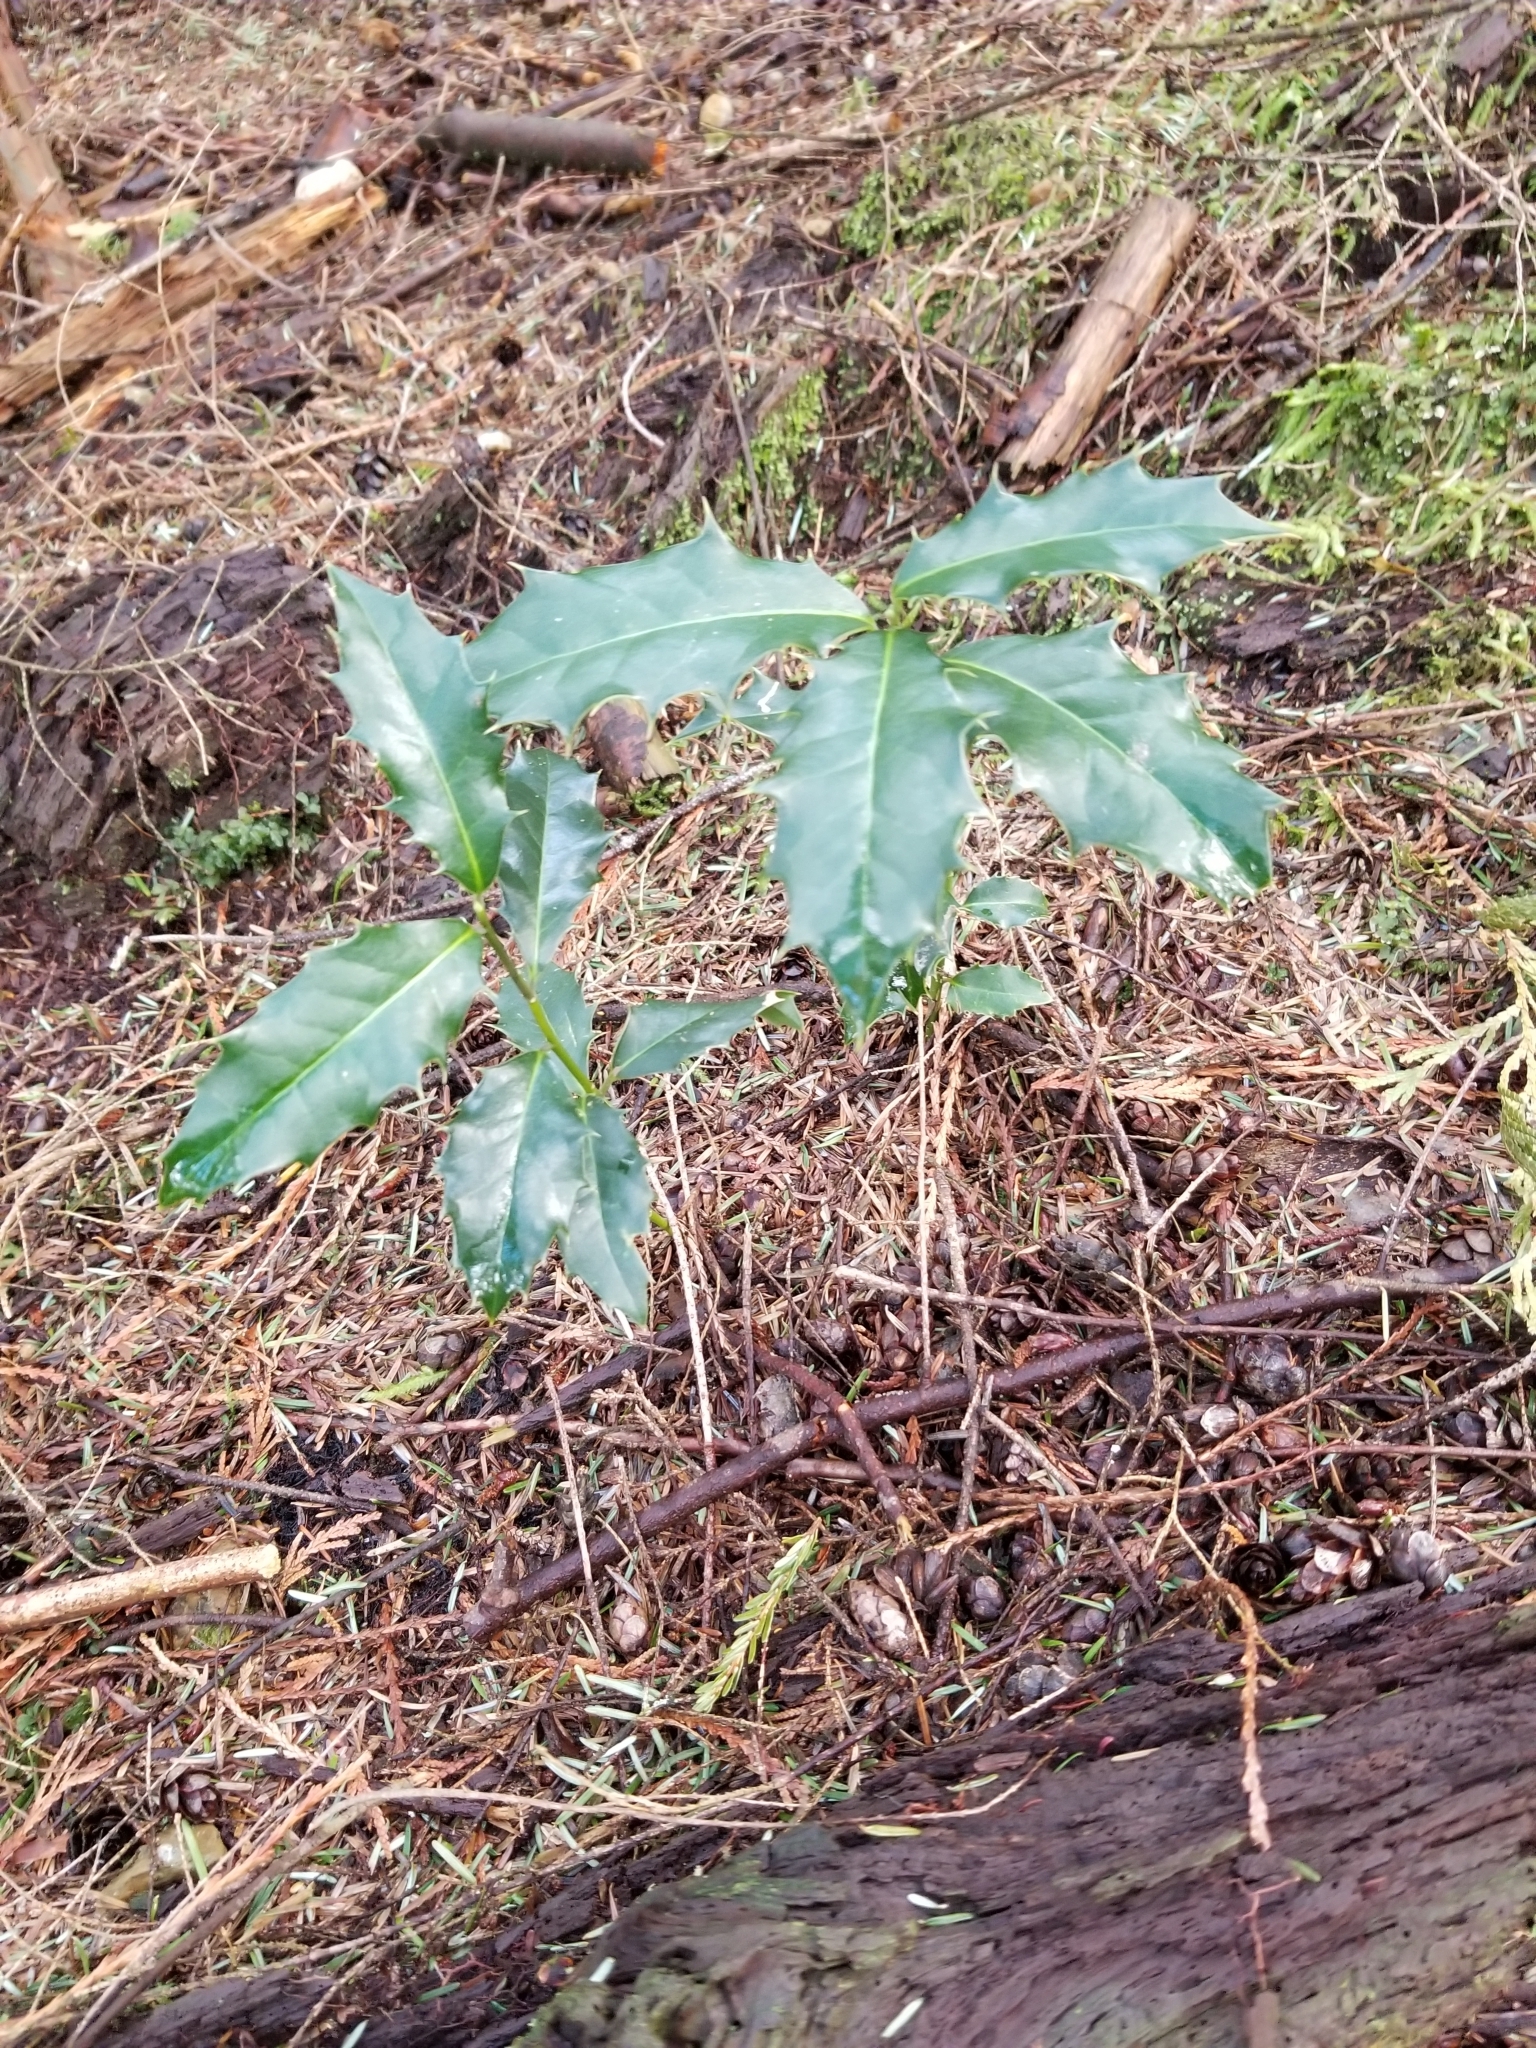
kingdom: Plantae
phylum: Tracheophyta
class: Magnoliopsida
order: Aquifoliales
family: Aquifoliaceae
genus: Ilex
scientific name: Ilex aquifolium
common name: English holly
